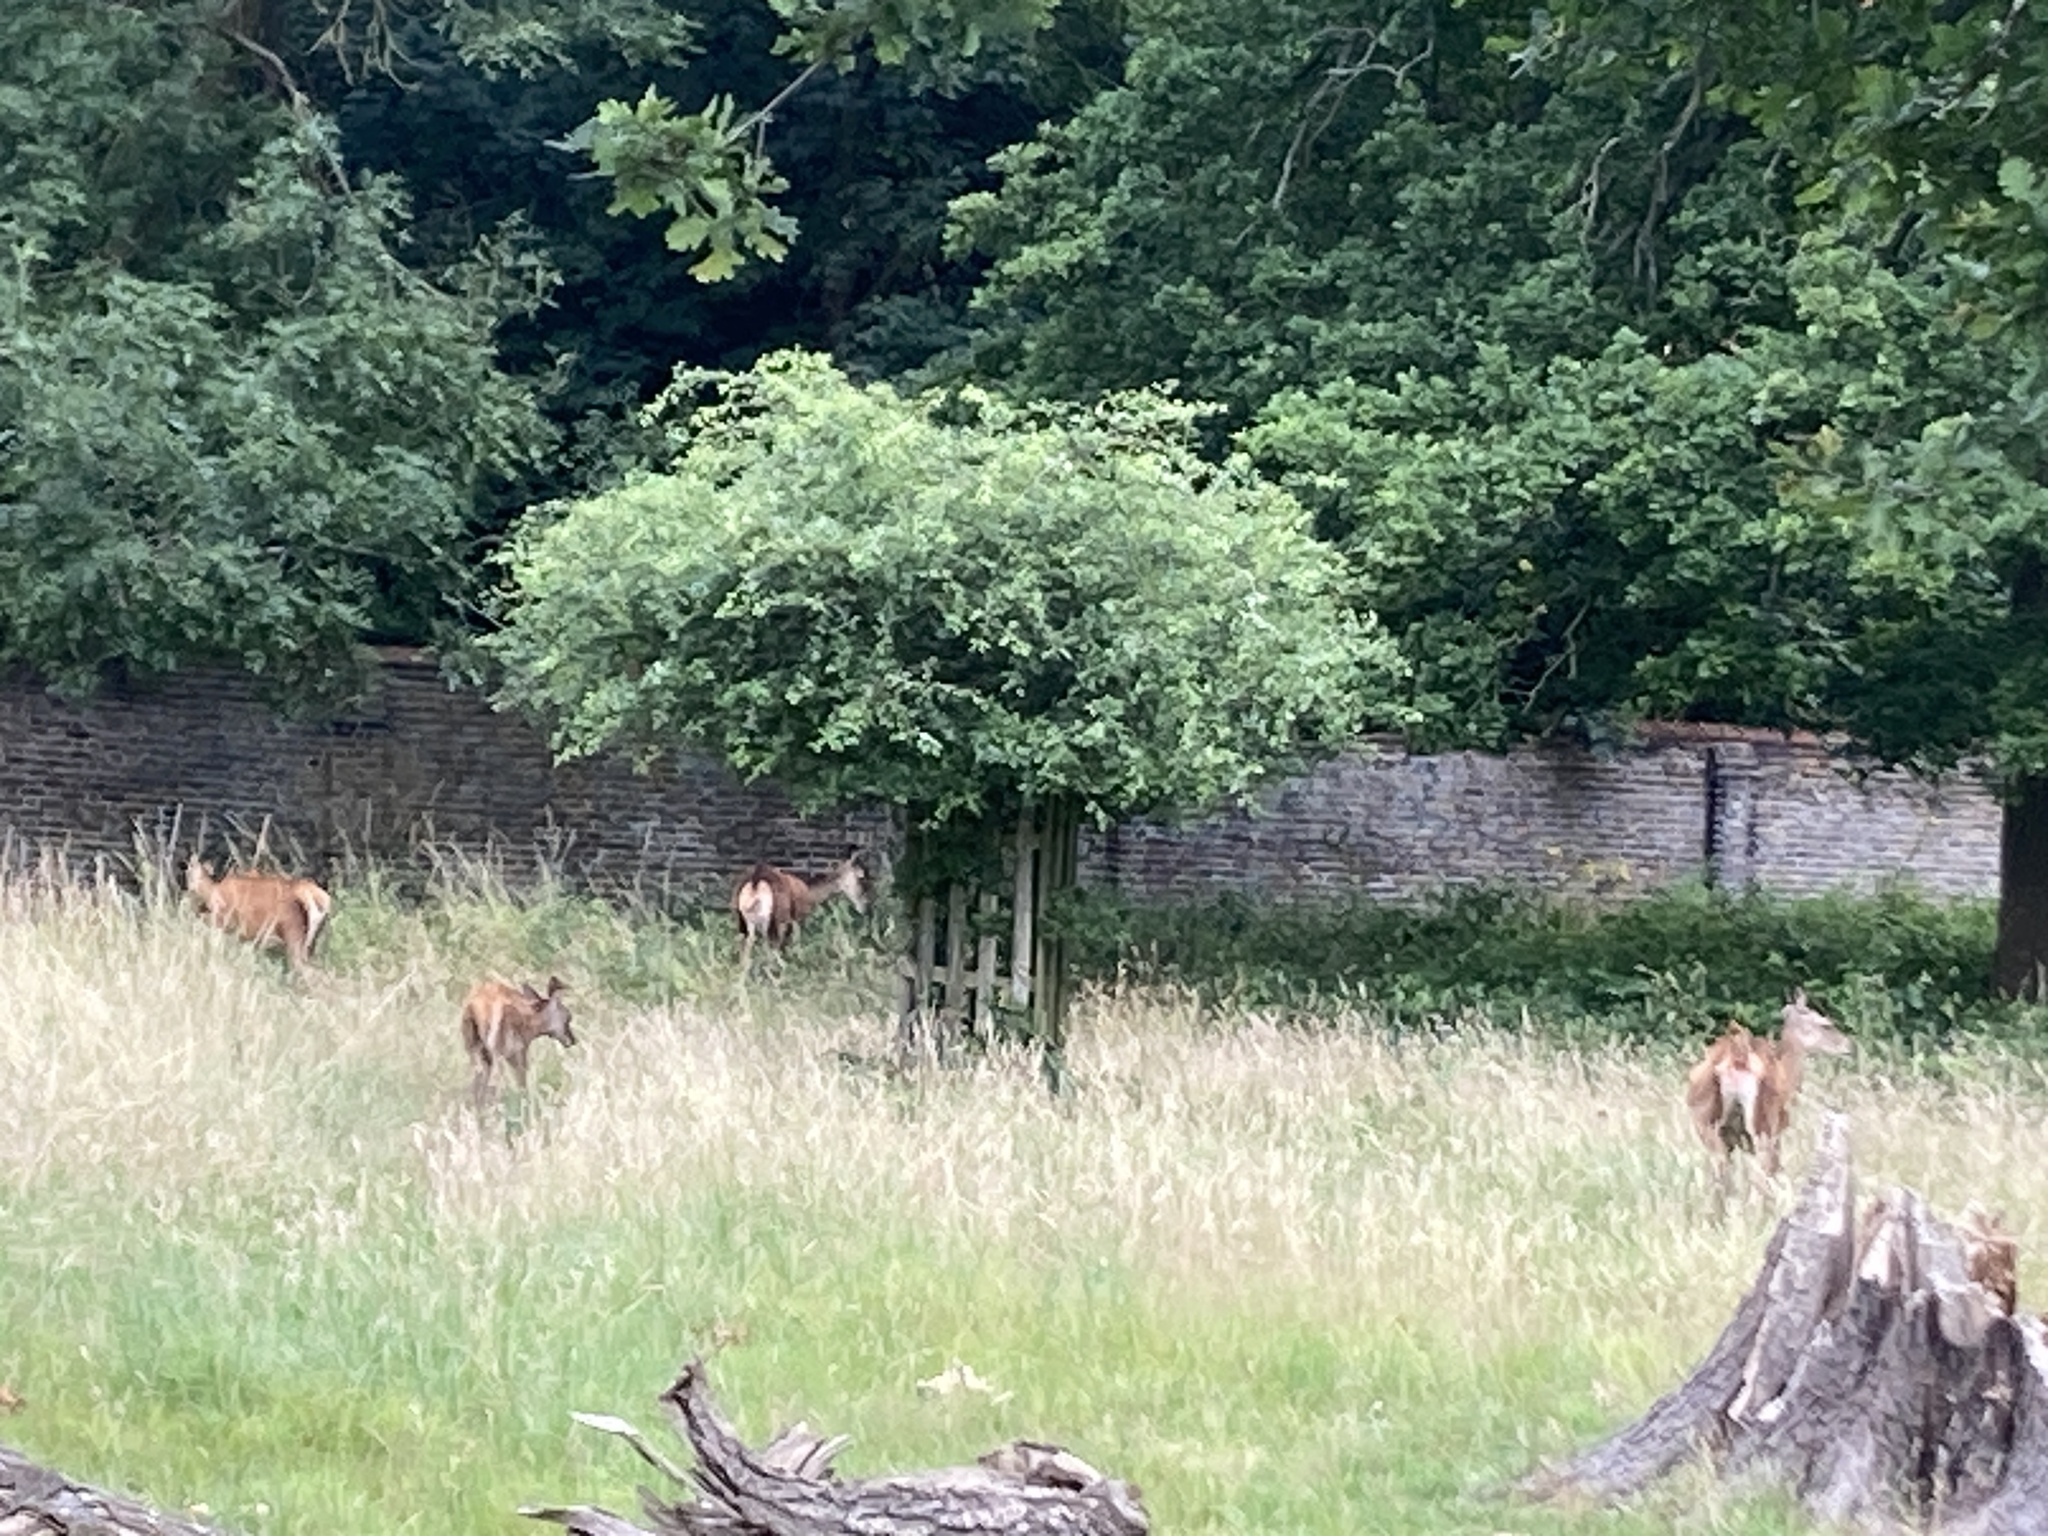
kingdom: Animalia
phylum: Chordata
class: Mammalia
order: Artiodactyla
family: Cervidae
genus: Cervus
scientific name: Cervus elaphus
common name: Red deer
